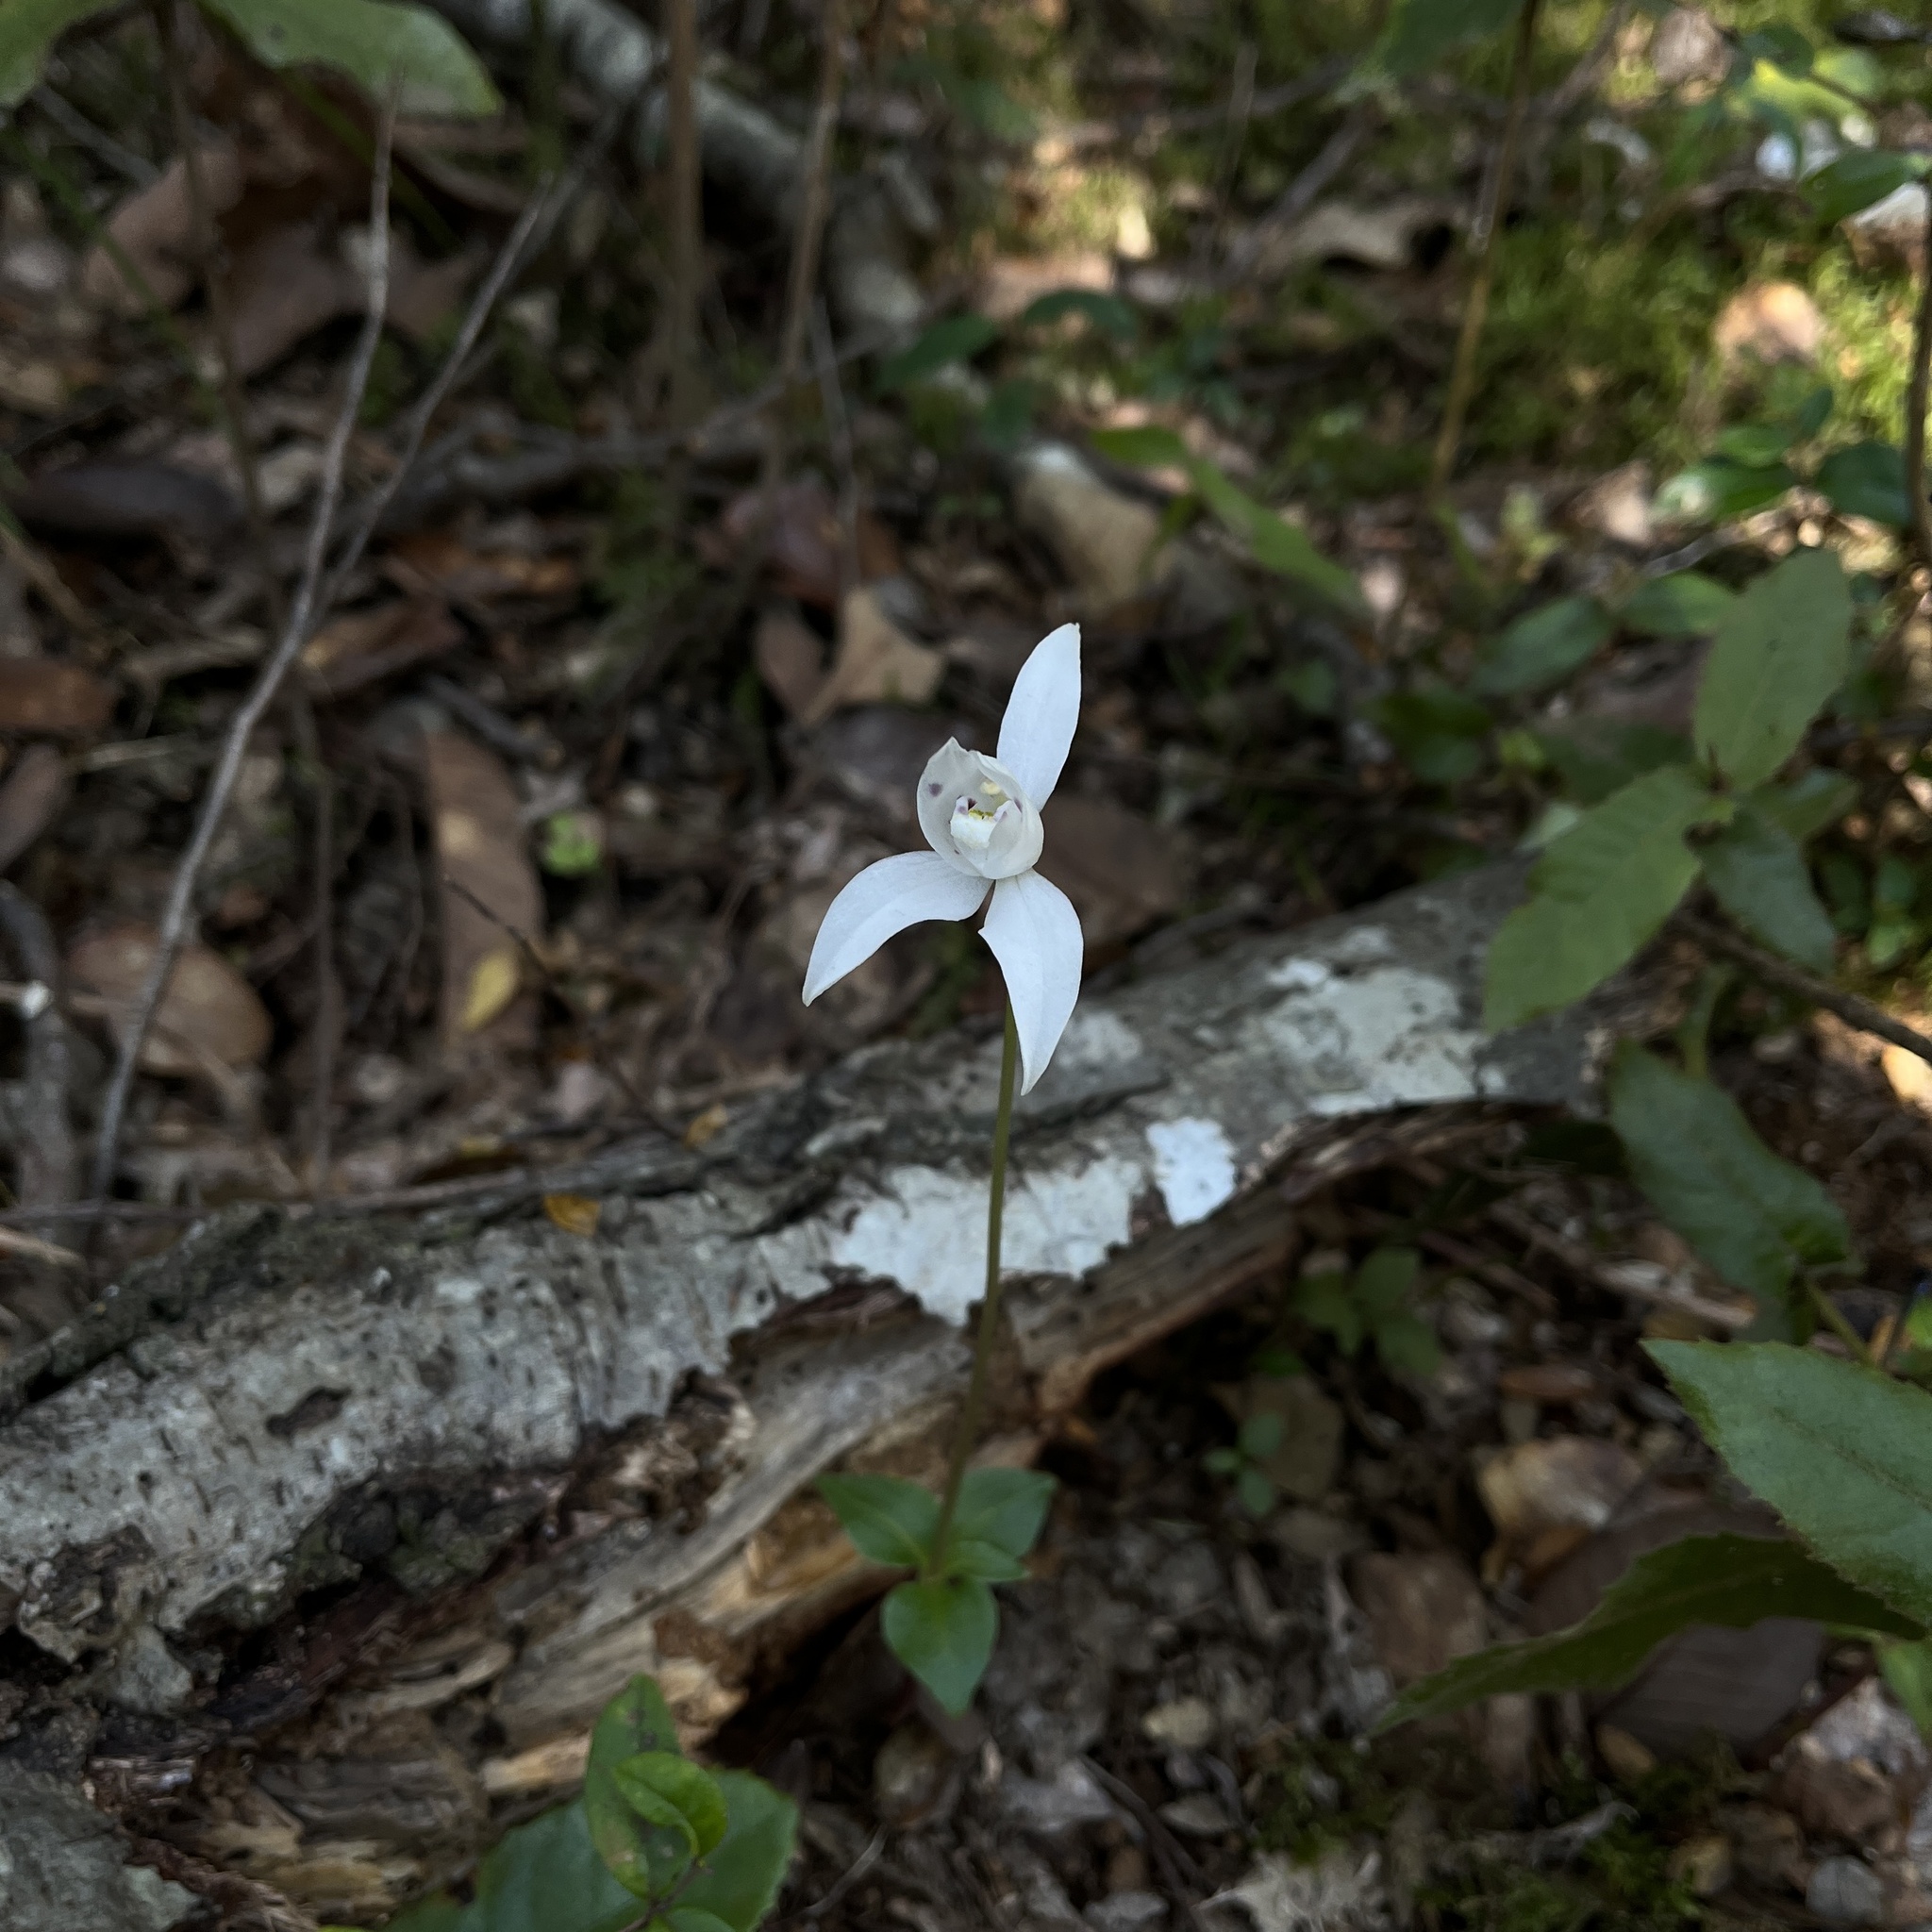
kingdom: Plantae
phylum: Tracheophyta
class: Liliopsida
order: Asparagales
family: Orchidaceae
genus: Codonorchis
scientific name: Codonorchis lessonii
